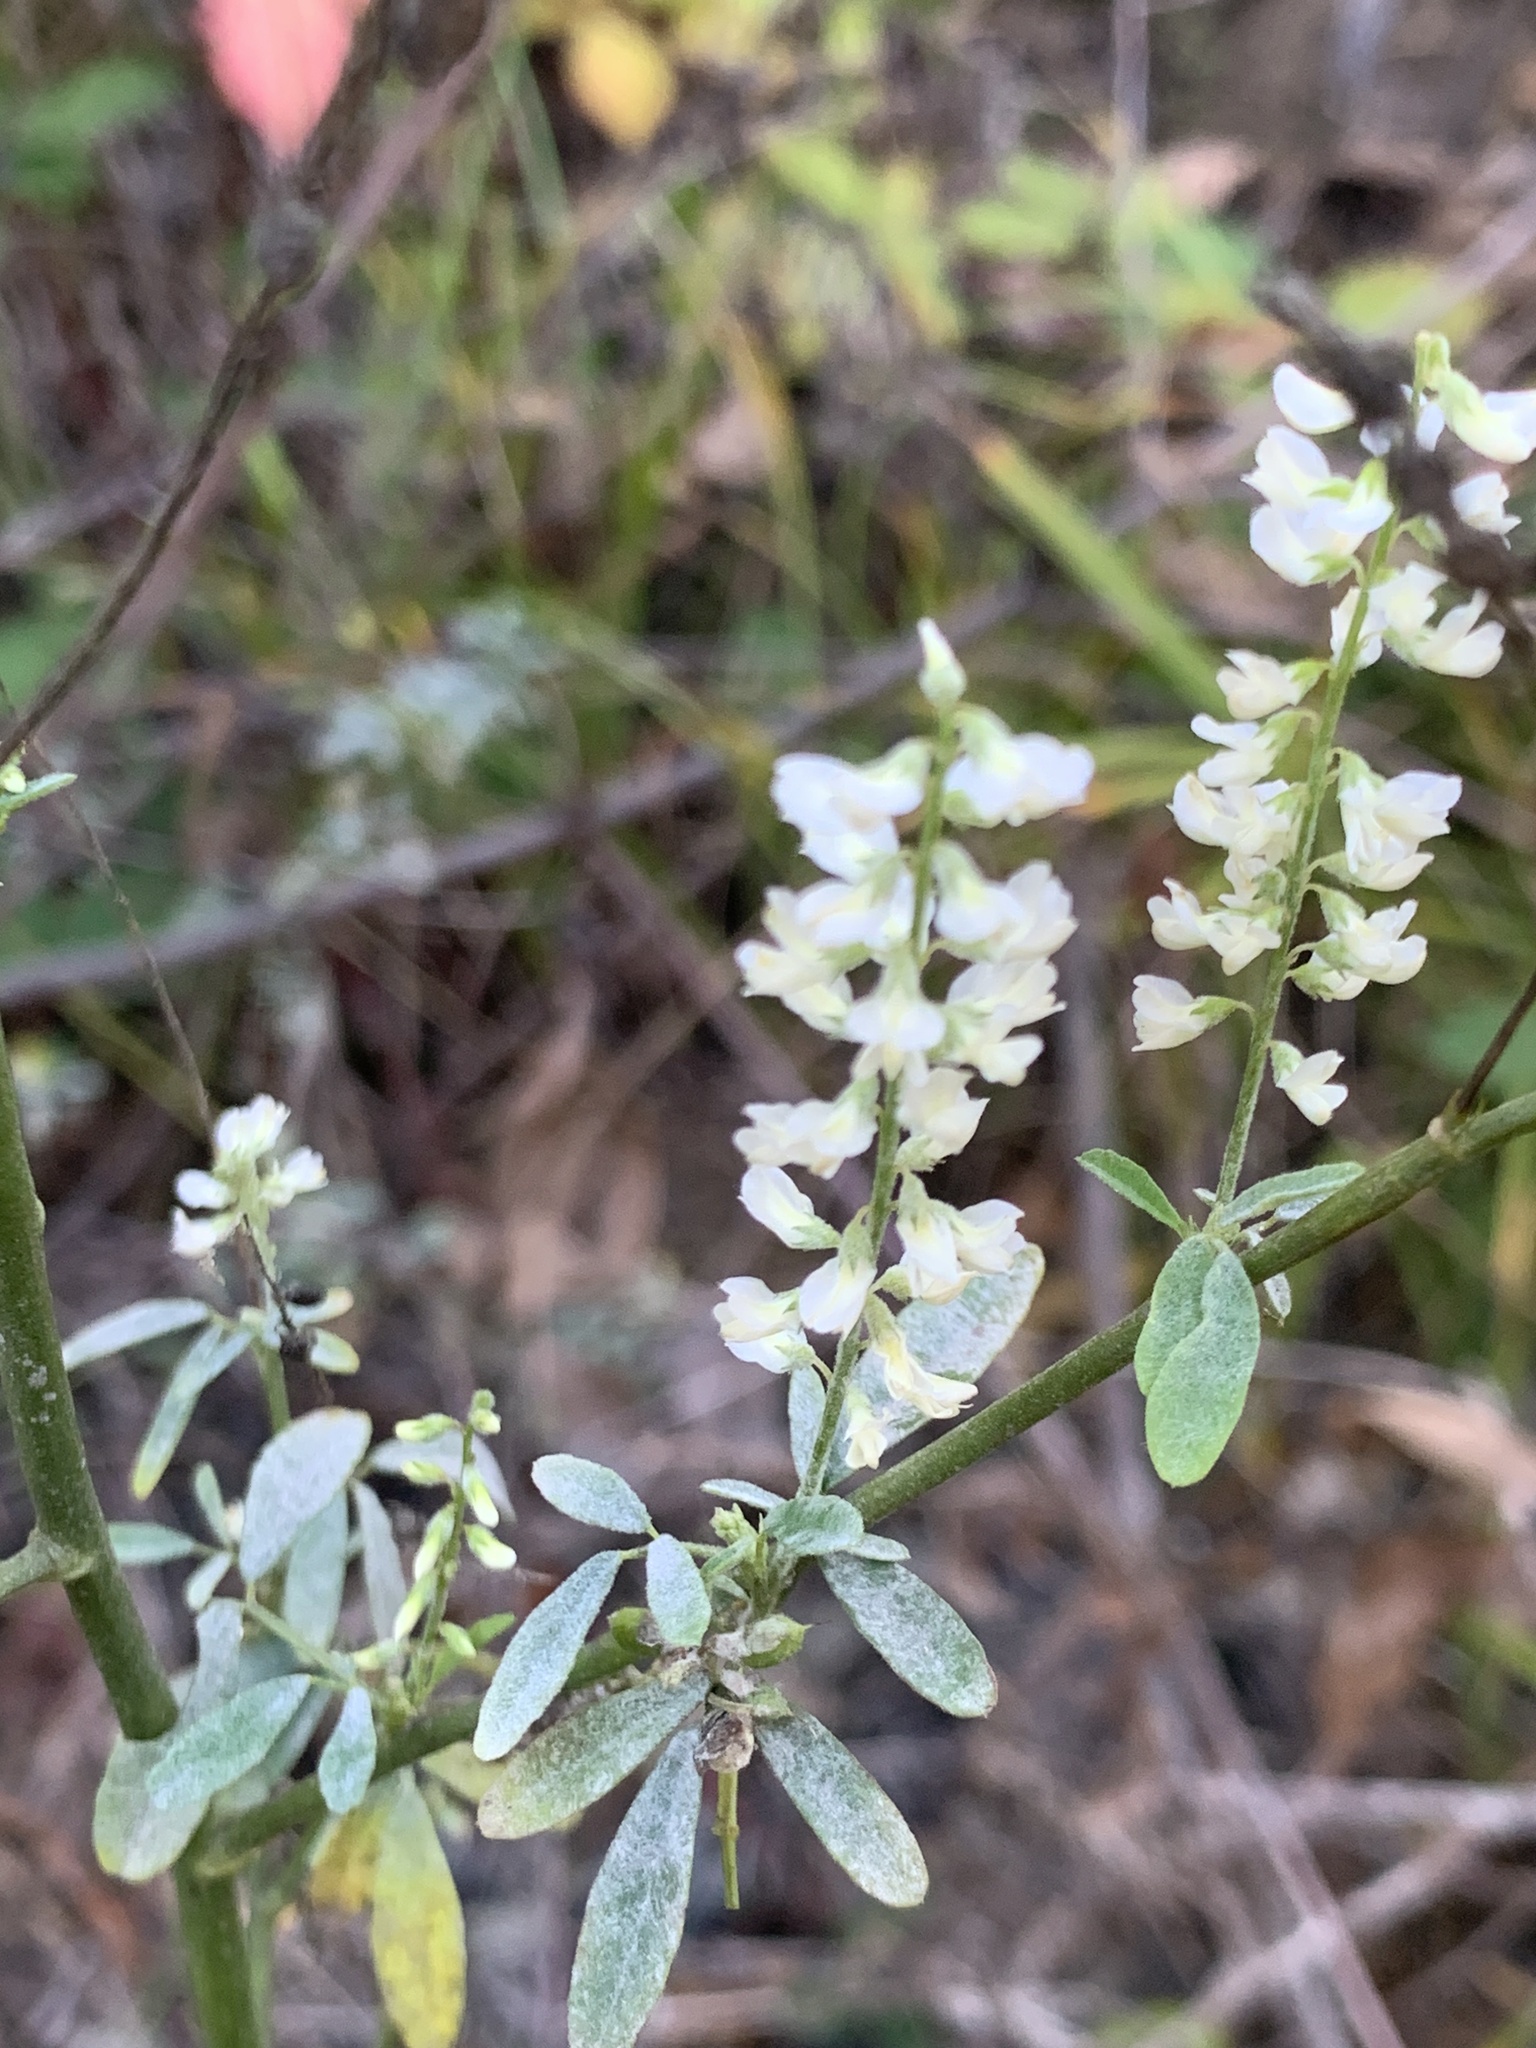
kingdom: Plantae
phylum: Tracheophyta
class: Magnoliopsida
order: Fabales
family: Fabaceae
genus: Melilotus
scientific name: Melilotus albus
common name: White melilot
